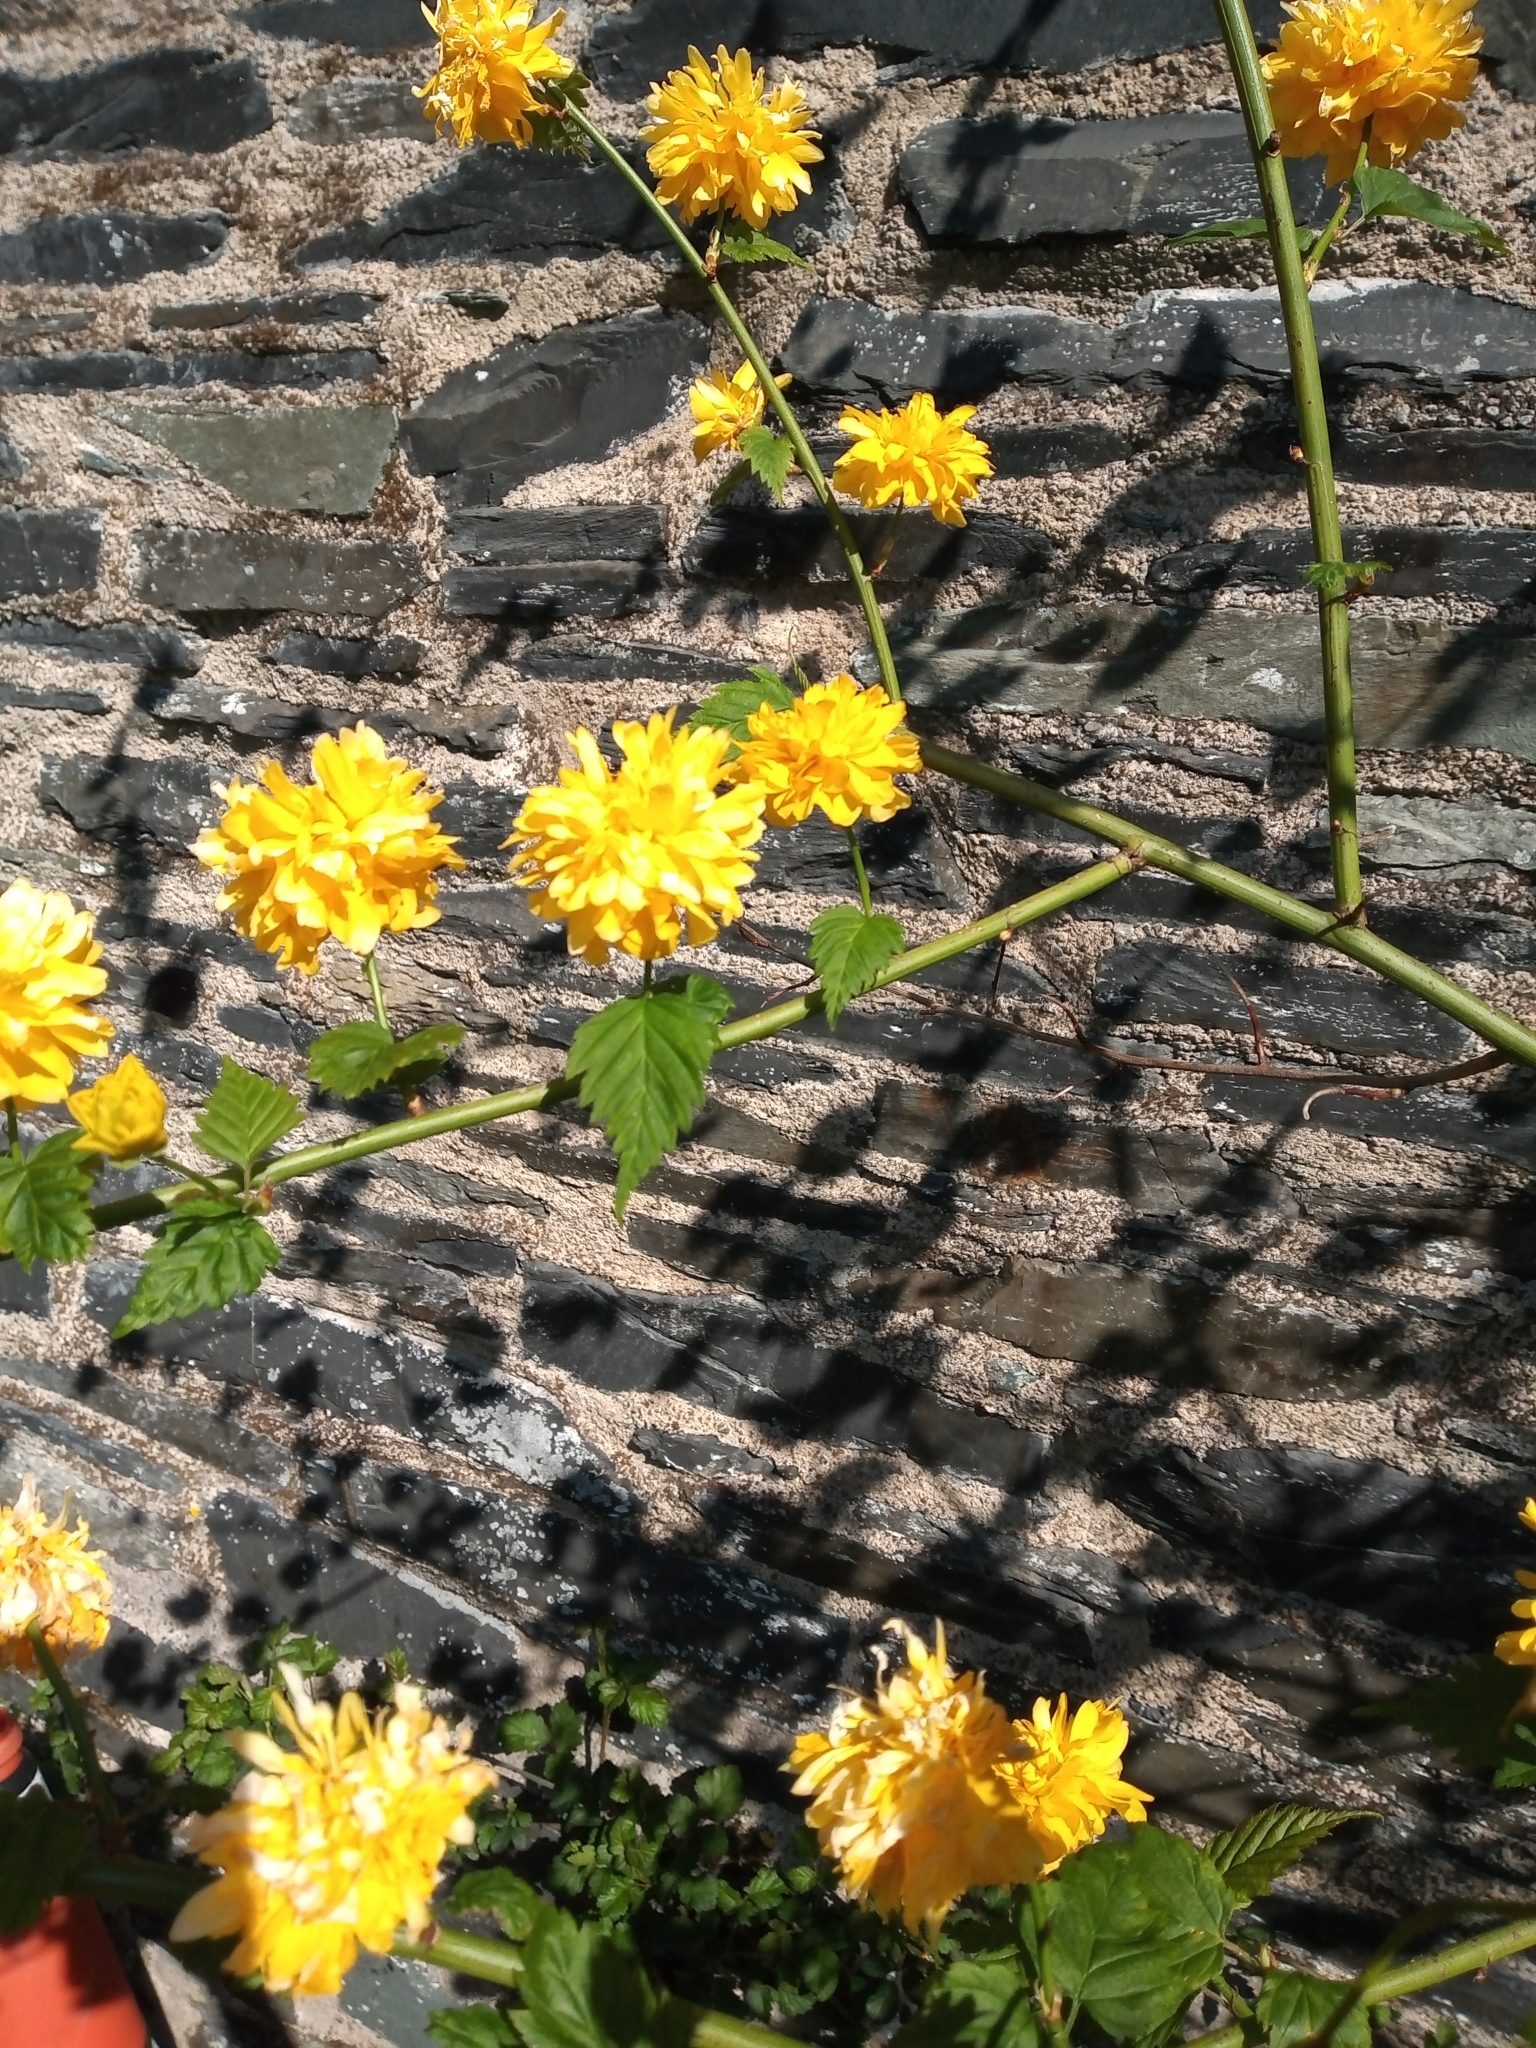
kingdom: Plantae
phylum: Tracheophyta
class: Magnoliopsida
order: Rosales
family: Rosaceae
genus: Kerria
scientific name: Kerria japonica
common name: Japanese kerria
